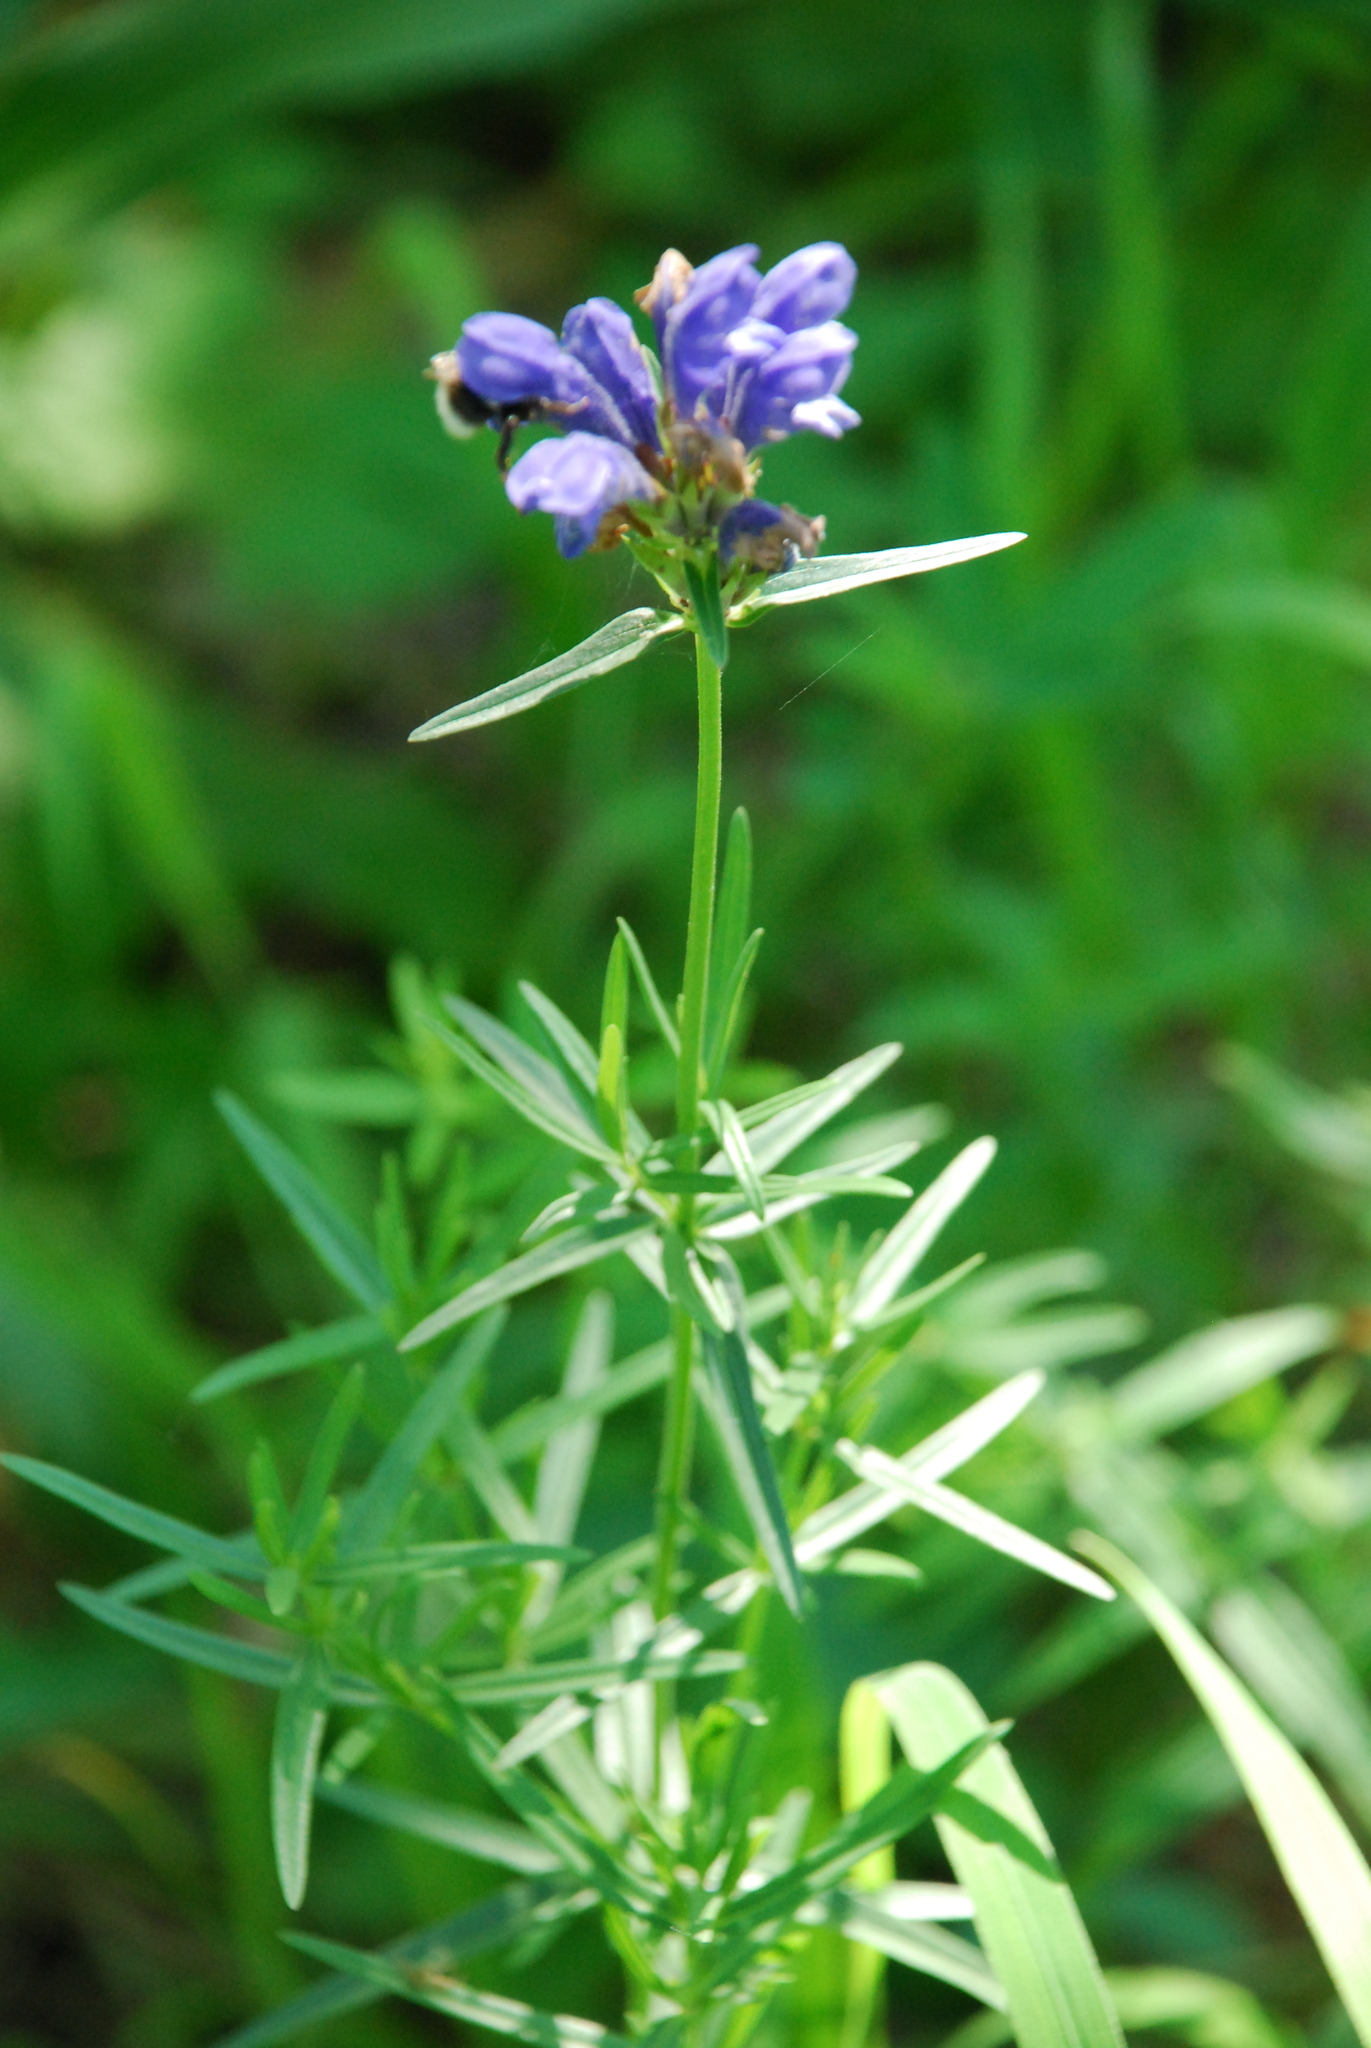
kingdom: Plantae
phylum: Tracheophyta
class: Magnoliopsida
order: Lamiales
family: Lamiaceae
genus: Dracocephalum
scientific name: Dracocephalum ruyschiana
